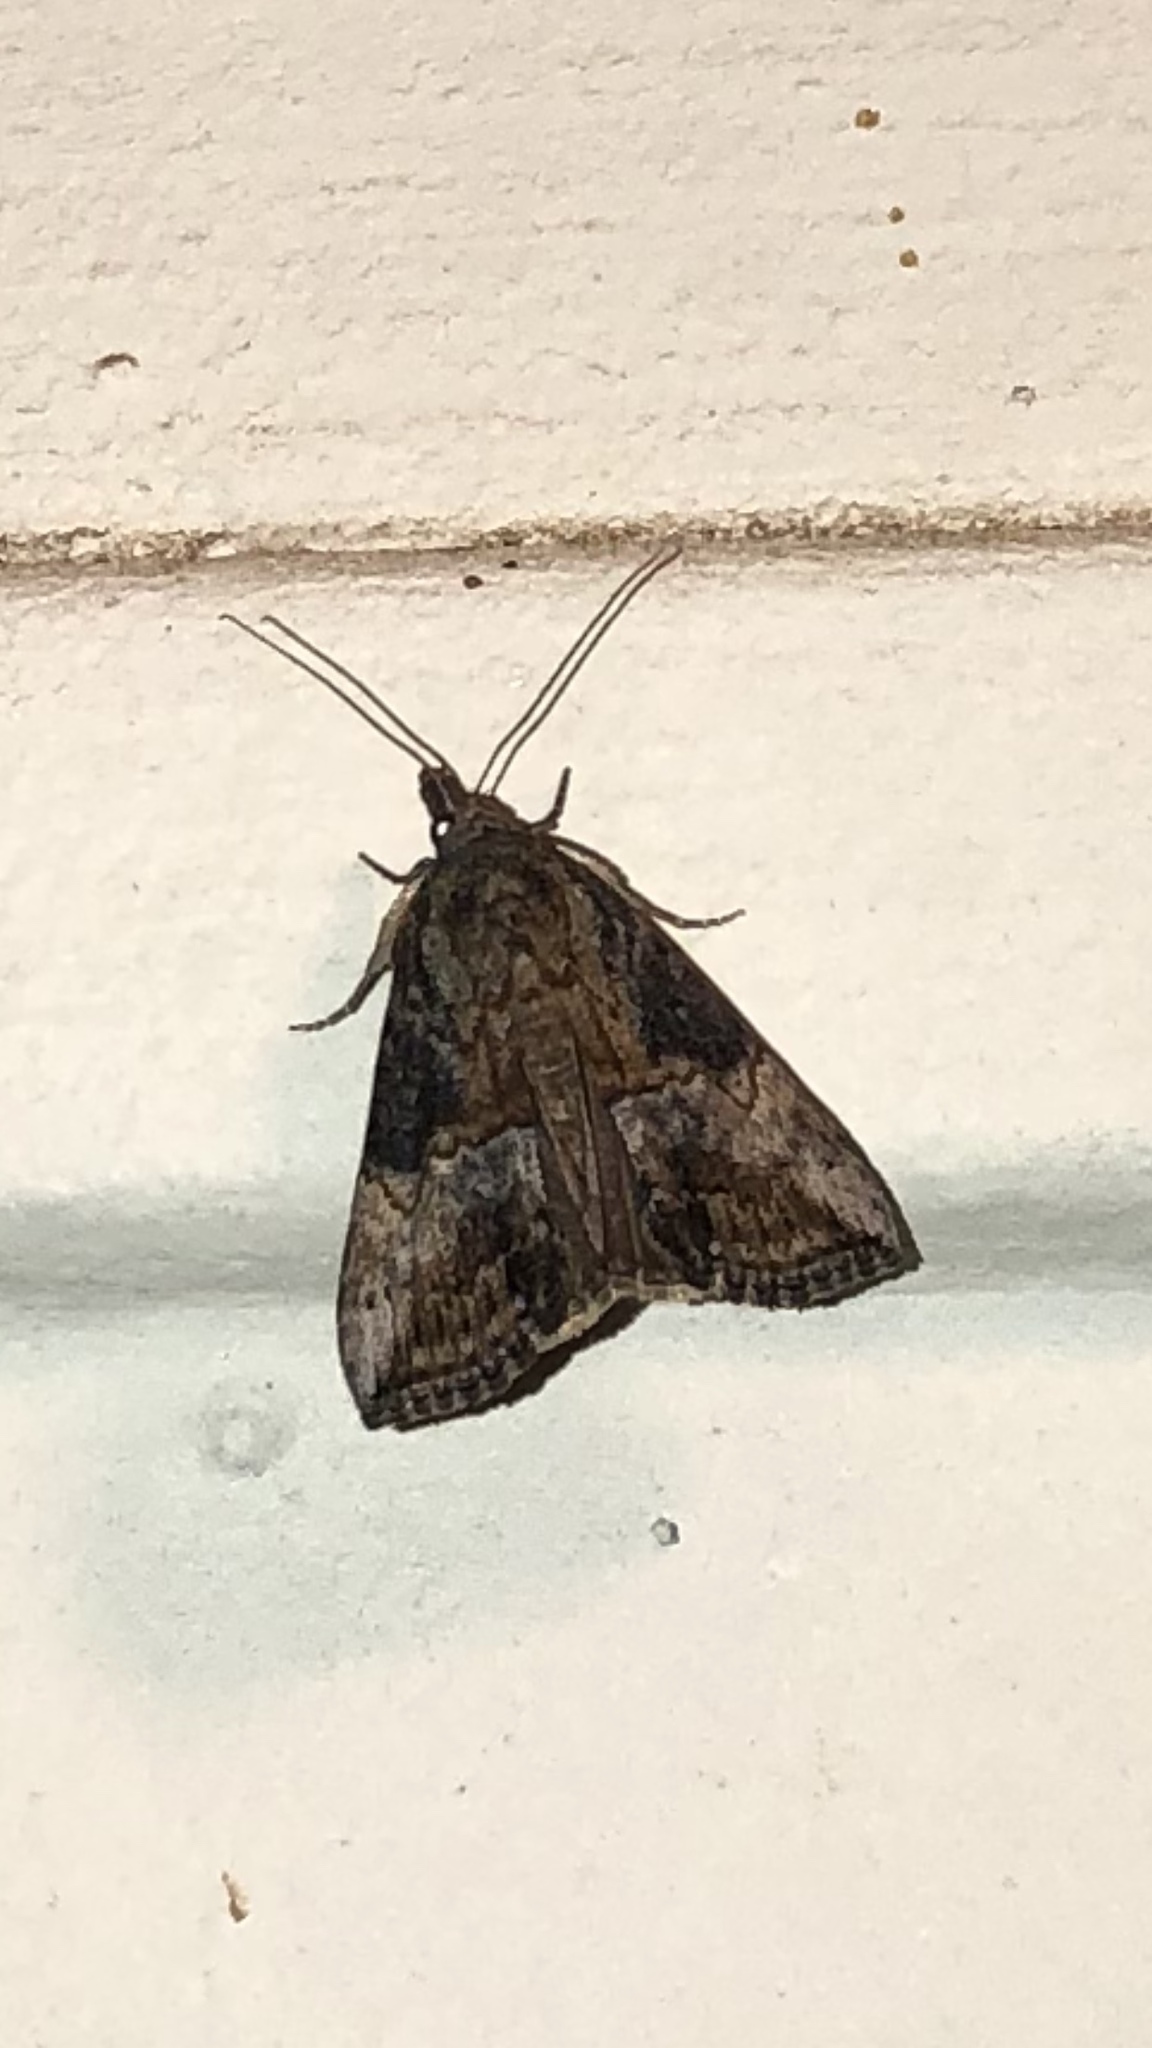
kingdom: Animalia
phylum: Arthropoda
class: Insecta
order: Lepidoptera
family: Erebidae
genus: Hypena
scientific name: Hypena scabra
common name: Green cloverworm
